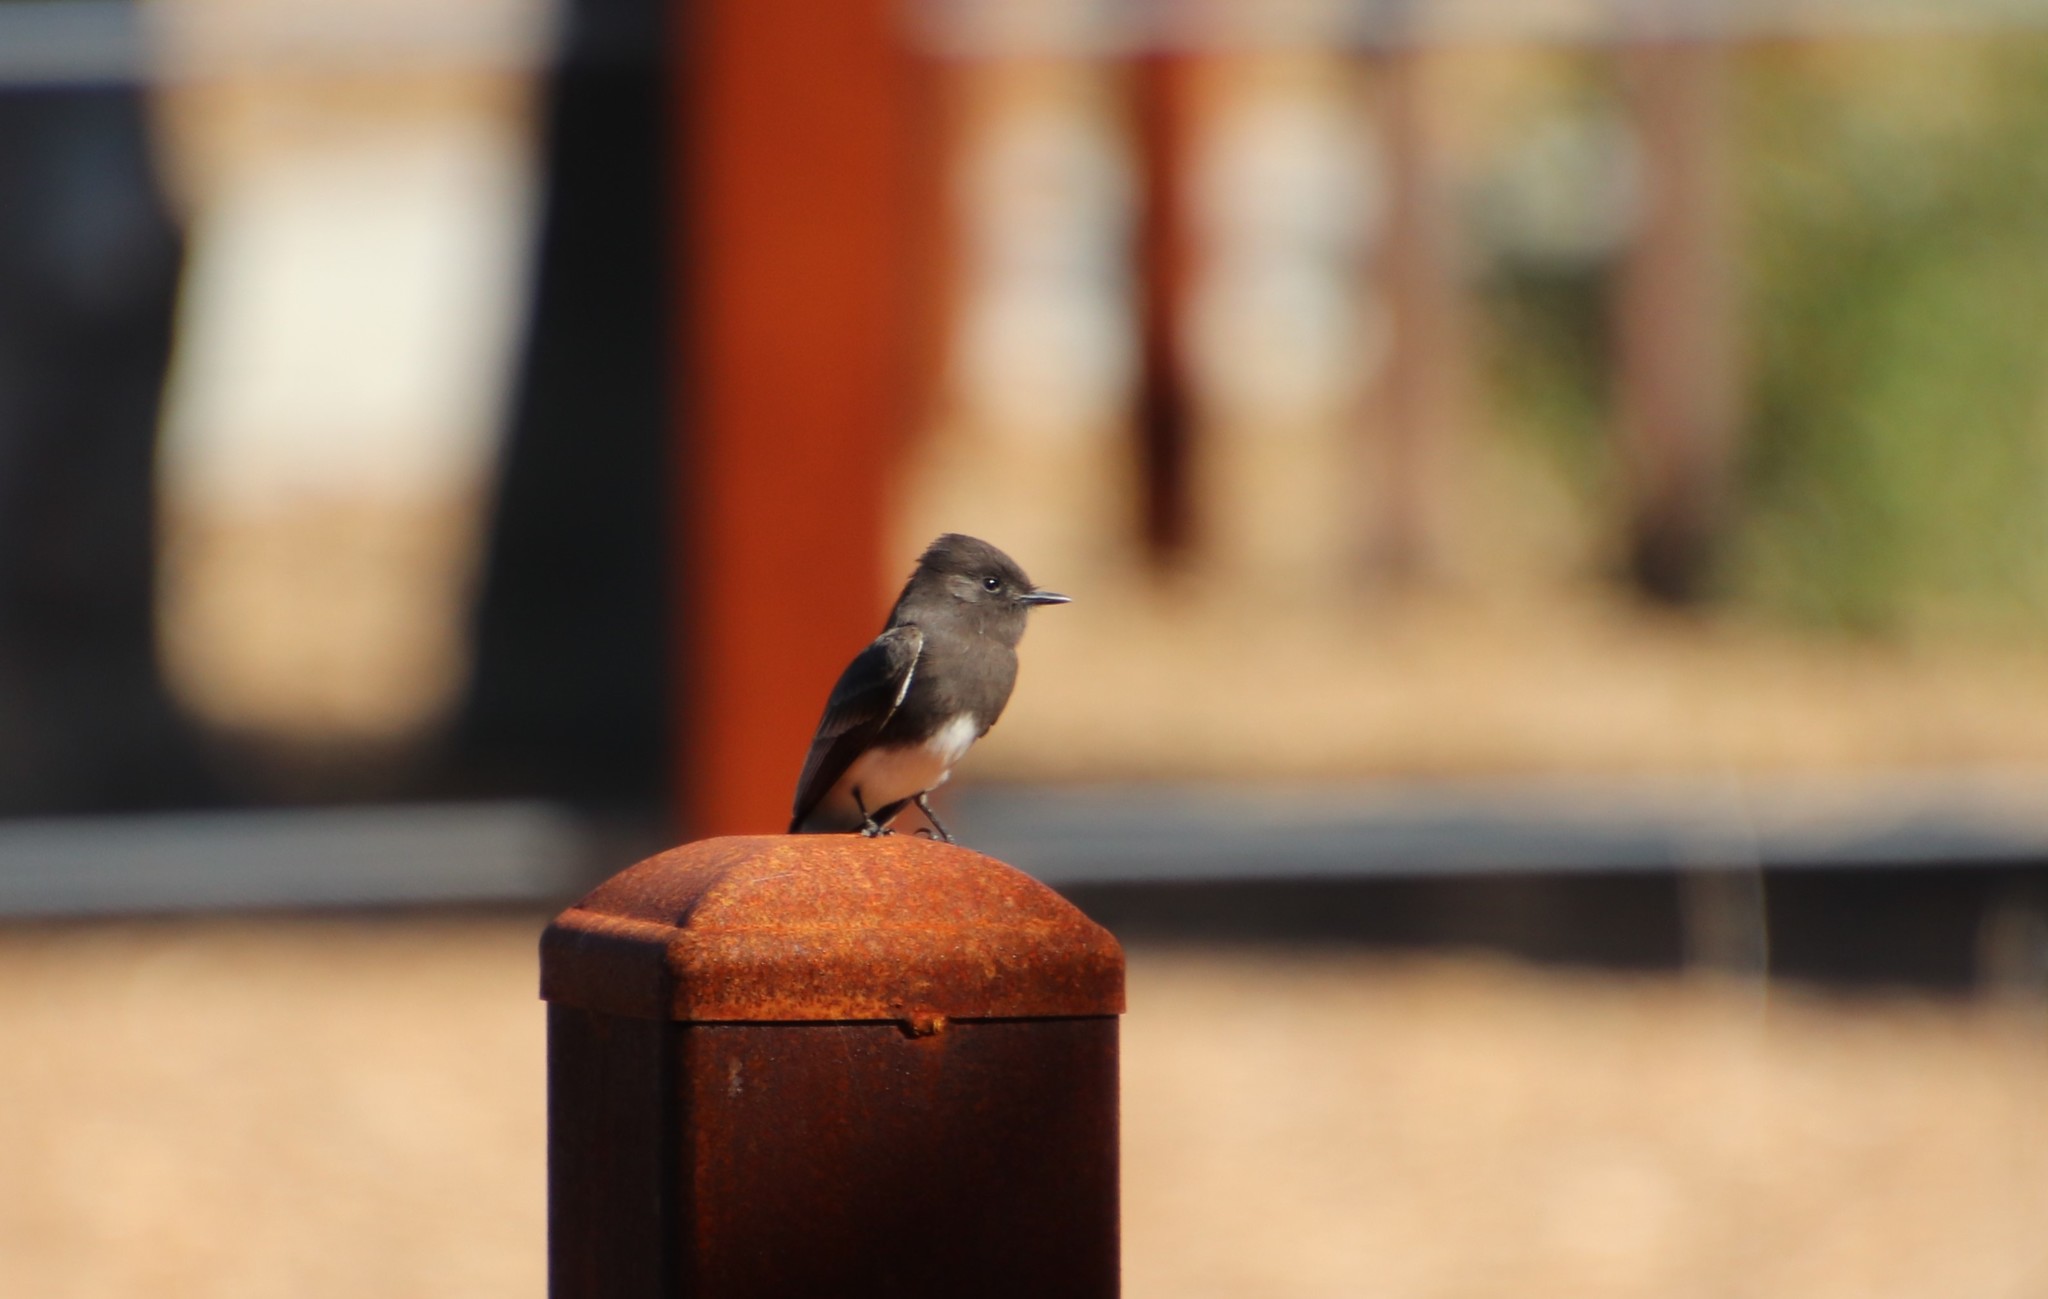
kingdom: Animalia
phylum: Chordata
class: Aves
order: Passeriformes
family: Tyrannidae
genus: Sayornis
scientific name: Sayornis nigricans
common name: Black phoebe
